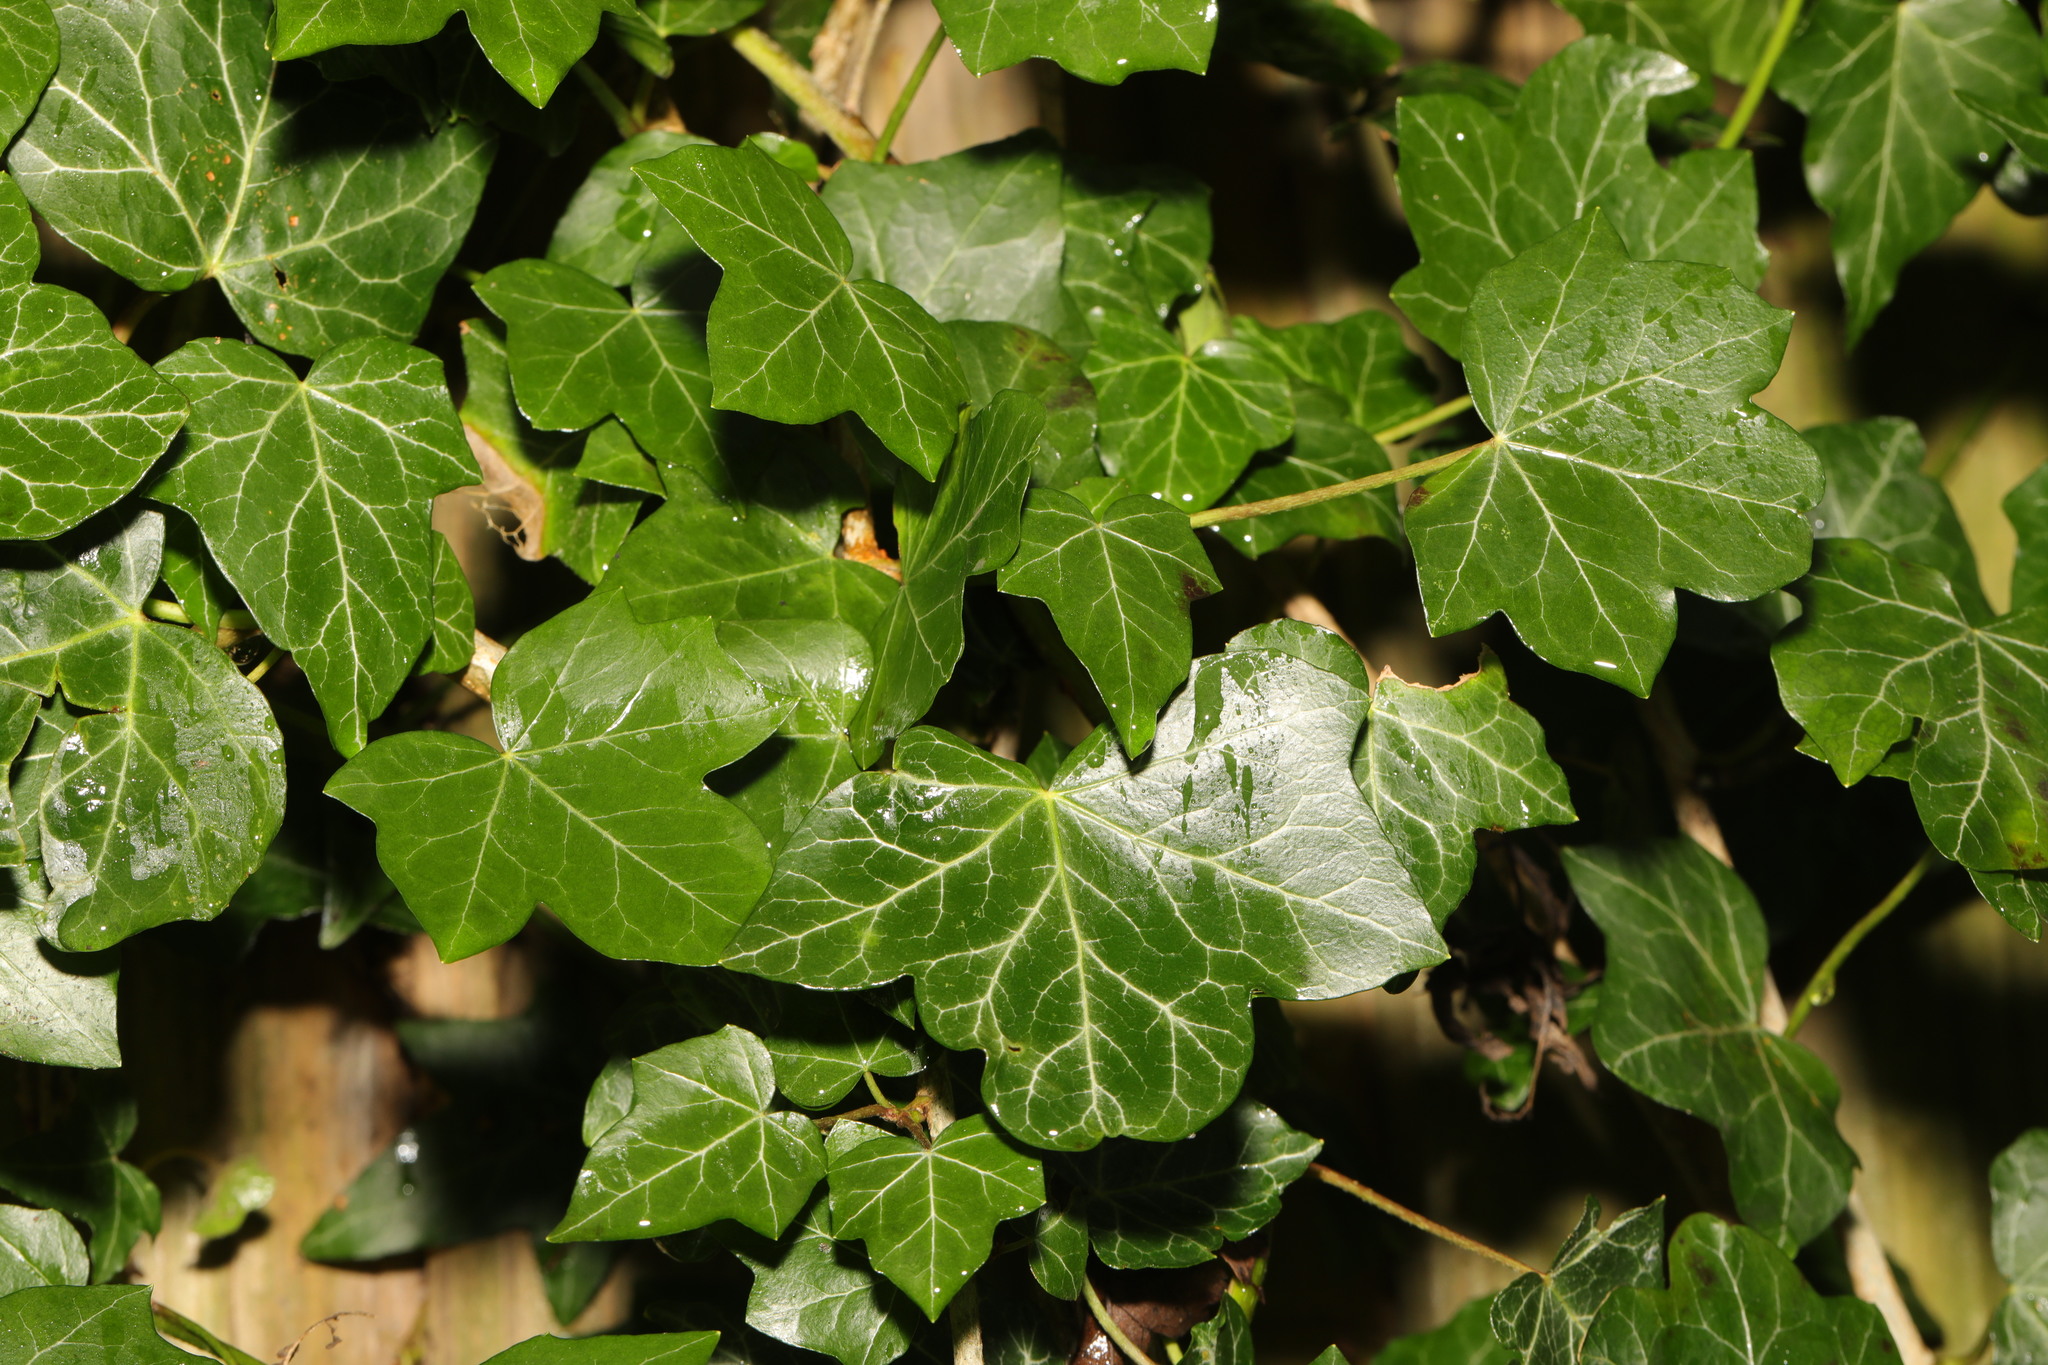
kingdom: Plantae
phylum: Tracheophyta
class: Magnoliopsida
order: Apiales
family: Araliaceae
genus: Hedera
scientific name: Hedera helix
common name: Ivy
